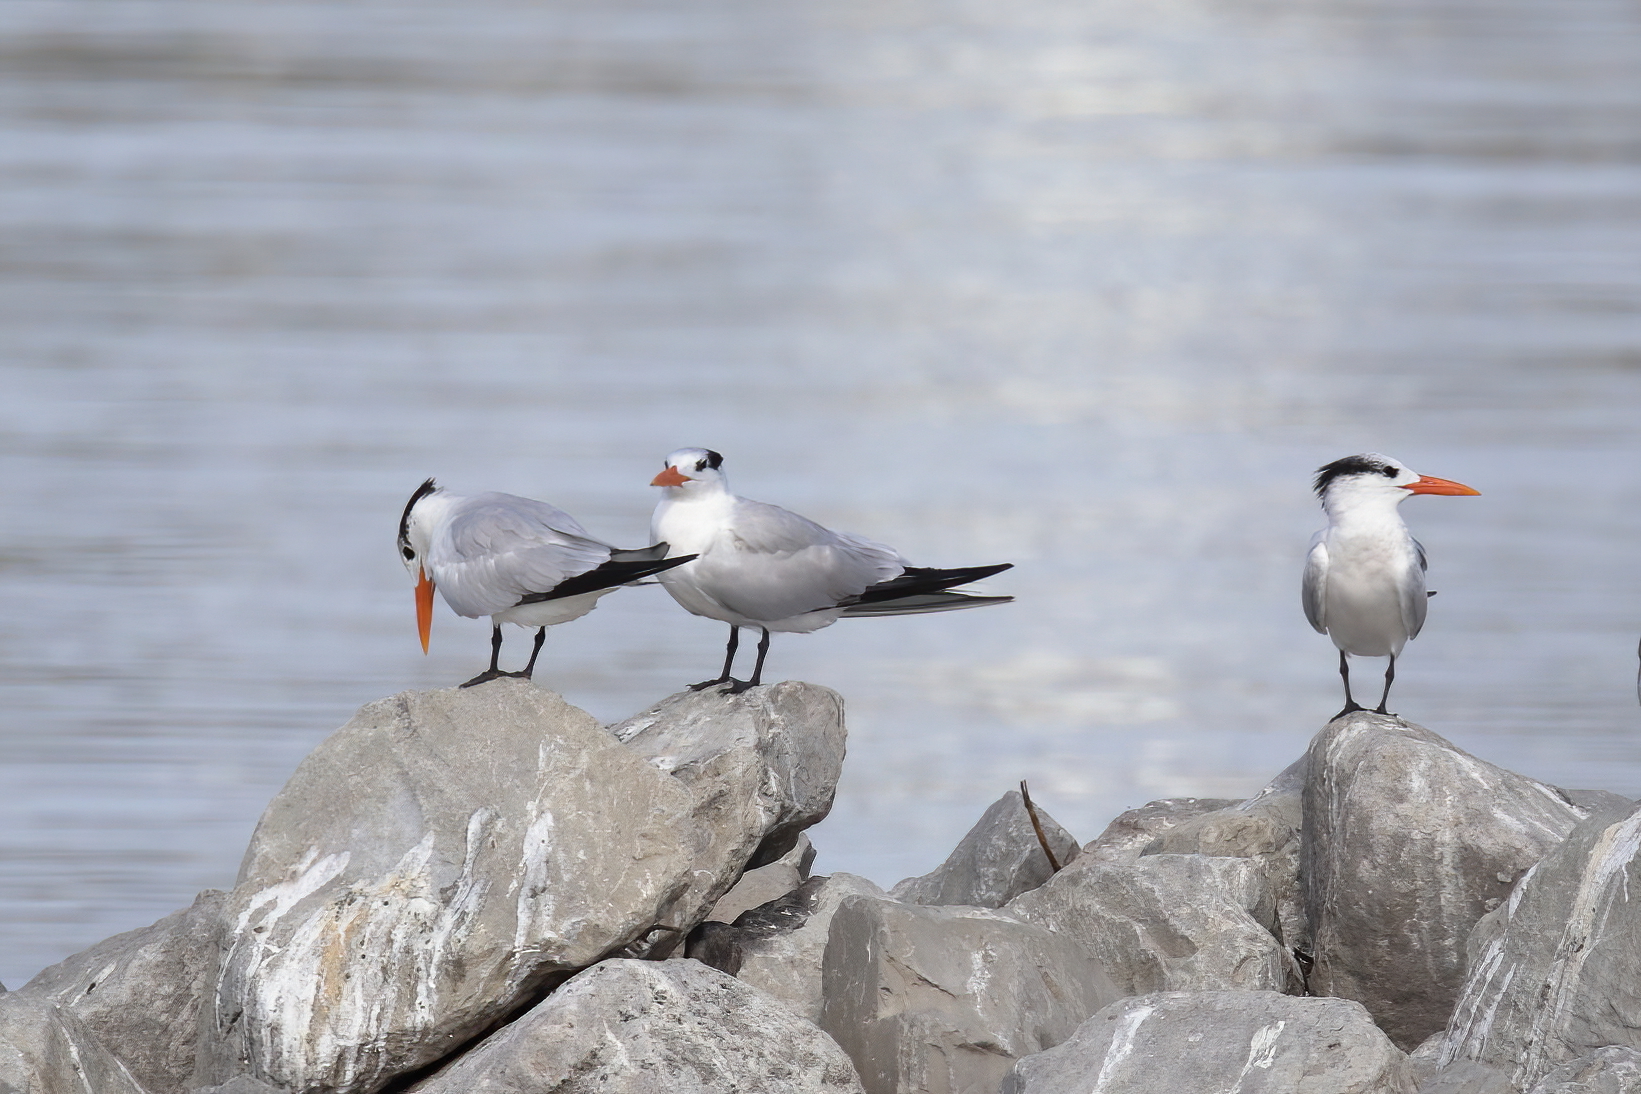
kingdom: Animalia
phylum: Chordata
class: Aves
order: Charadriiformes
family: Laridae
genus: Thalasseus
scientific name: Thalasseus maximus
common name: Royal tern
